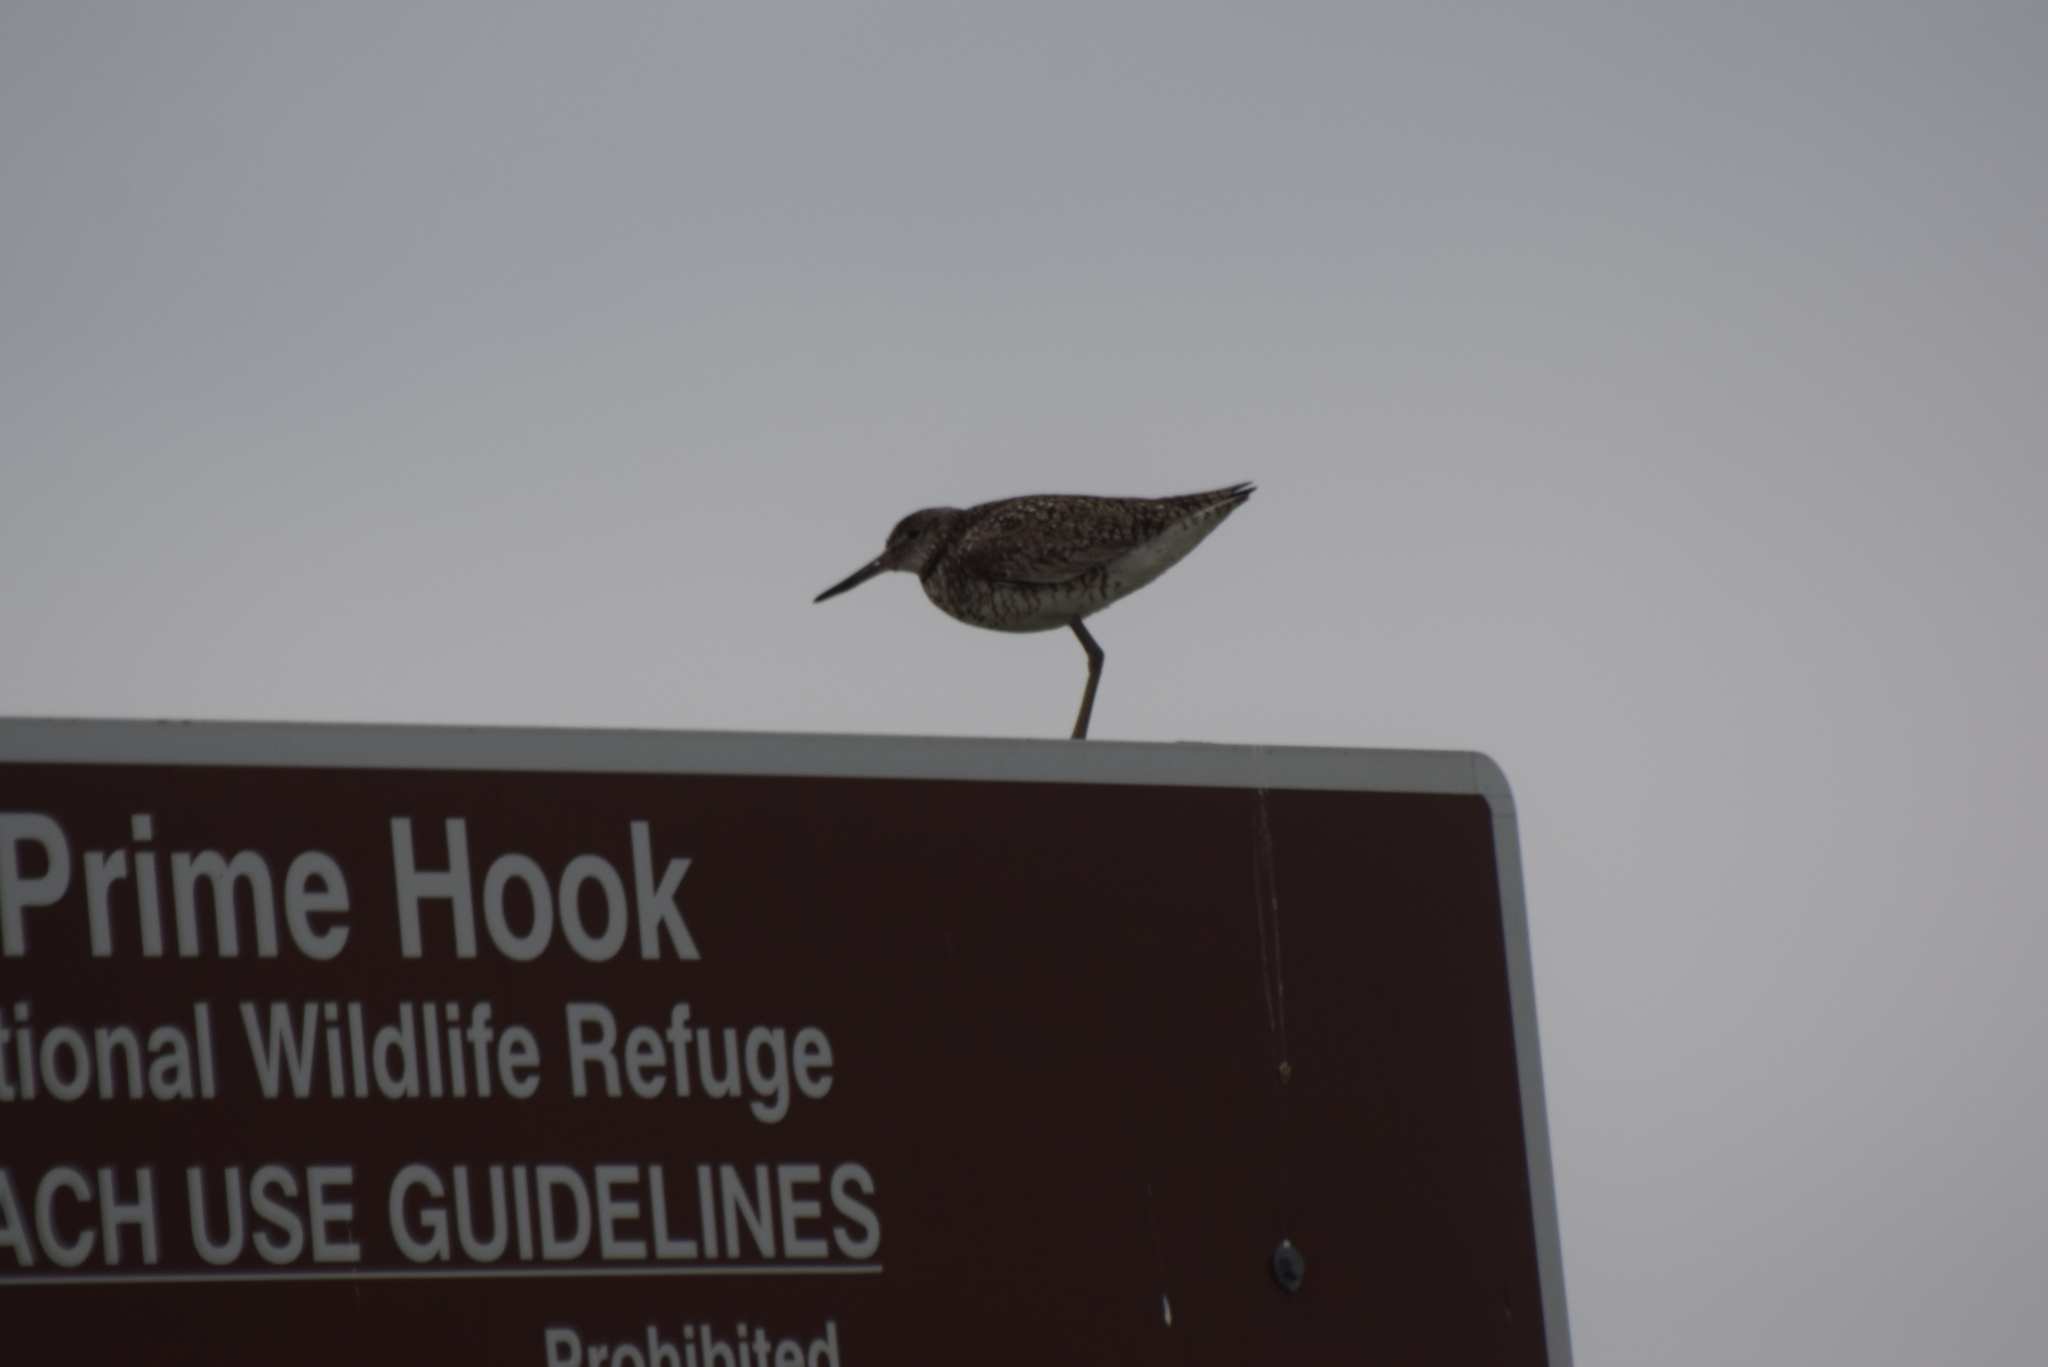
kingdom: Animalia
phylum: Chordata
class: Aves
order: Charadriiformes
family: Scolopacidae
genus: Tringa
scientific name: Tringa semipalmata
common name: Willet
